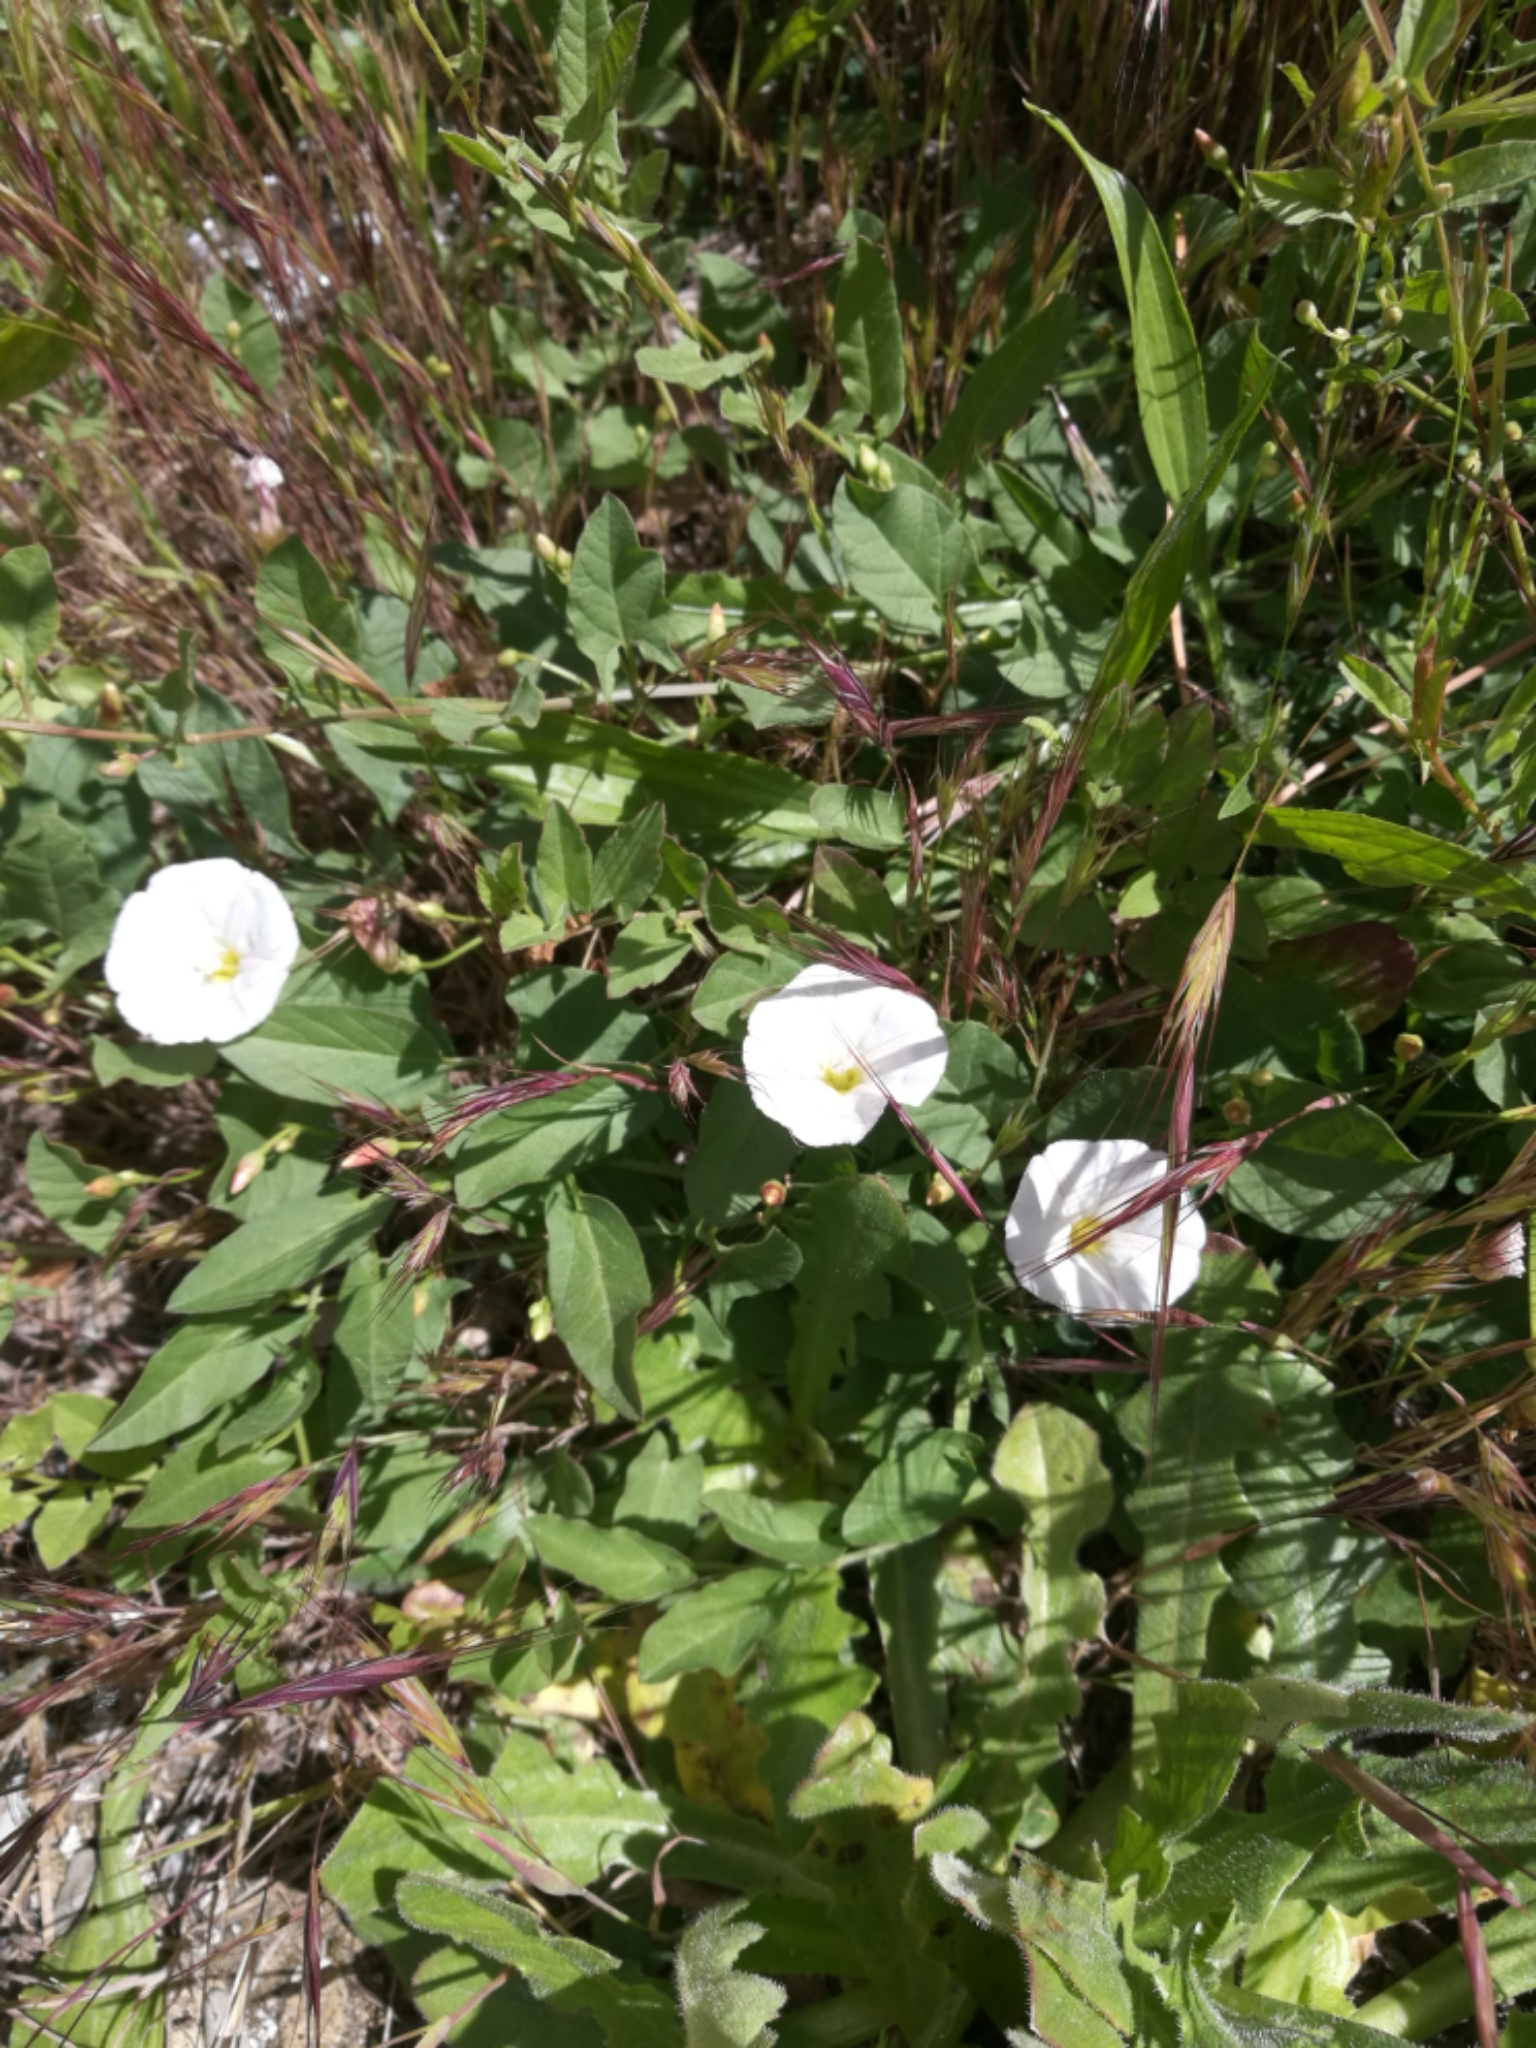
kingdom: Plantae
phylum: Tracheophyta
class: Magnoliopsida
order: Solanales
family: Convolvulaceae
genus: Convolvulus
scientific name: Convolvulus arvensis
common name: Field bindweed
